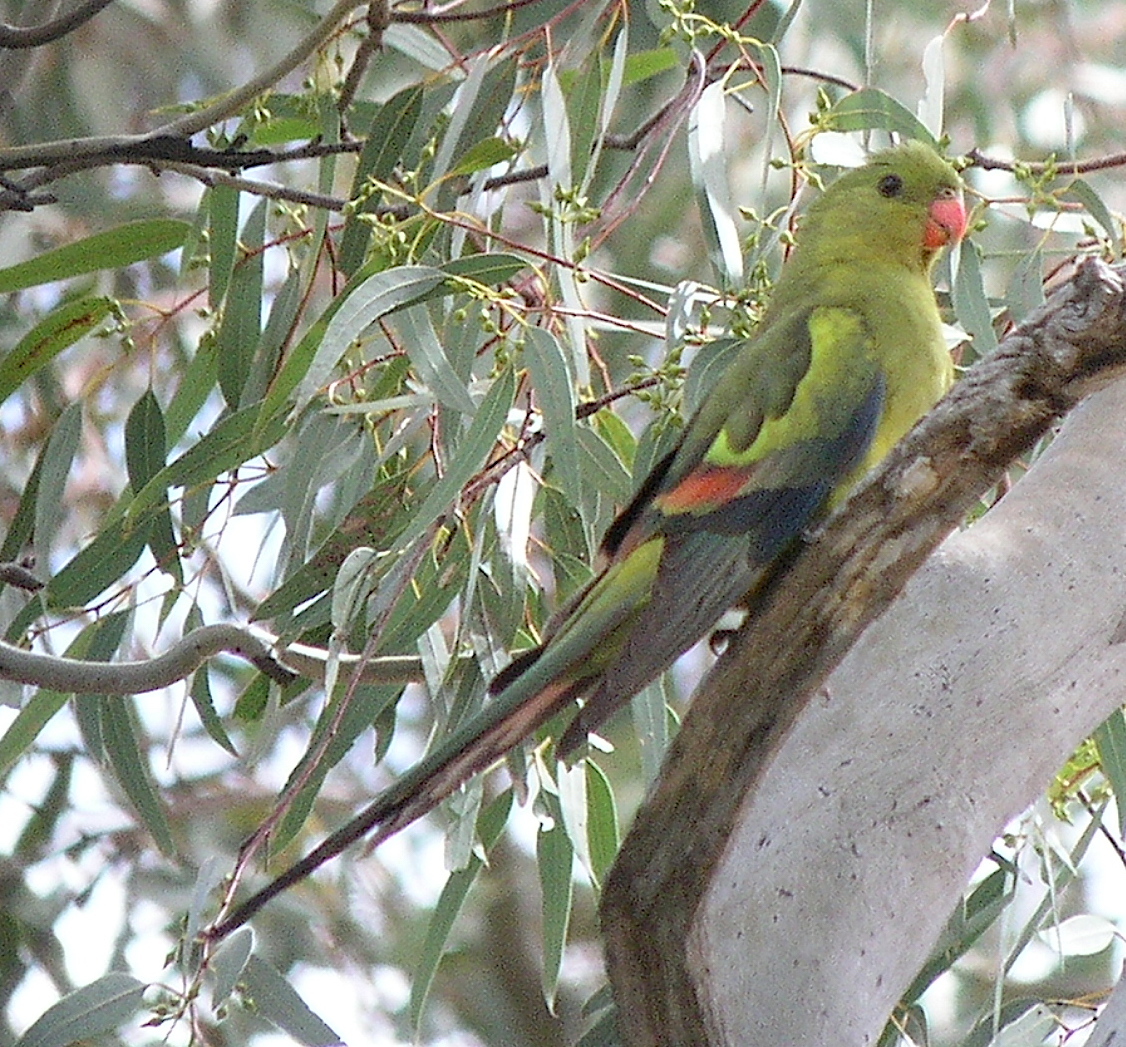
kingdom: Animalia
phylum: Chordata
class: Aves
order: Psittaciformes
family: Psittacidae
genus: Polytelis
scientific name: Polytelis anthopeplus
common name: Regent parrot
